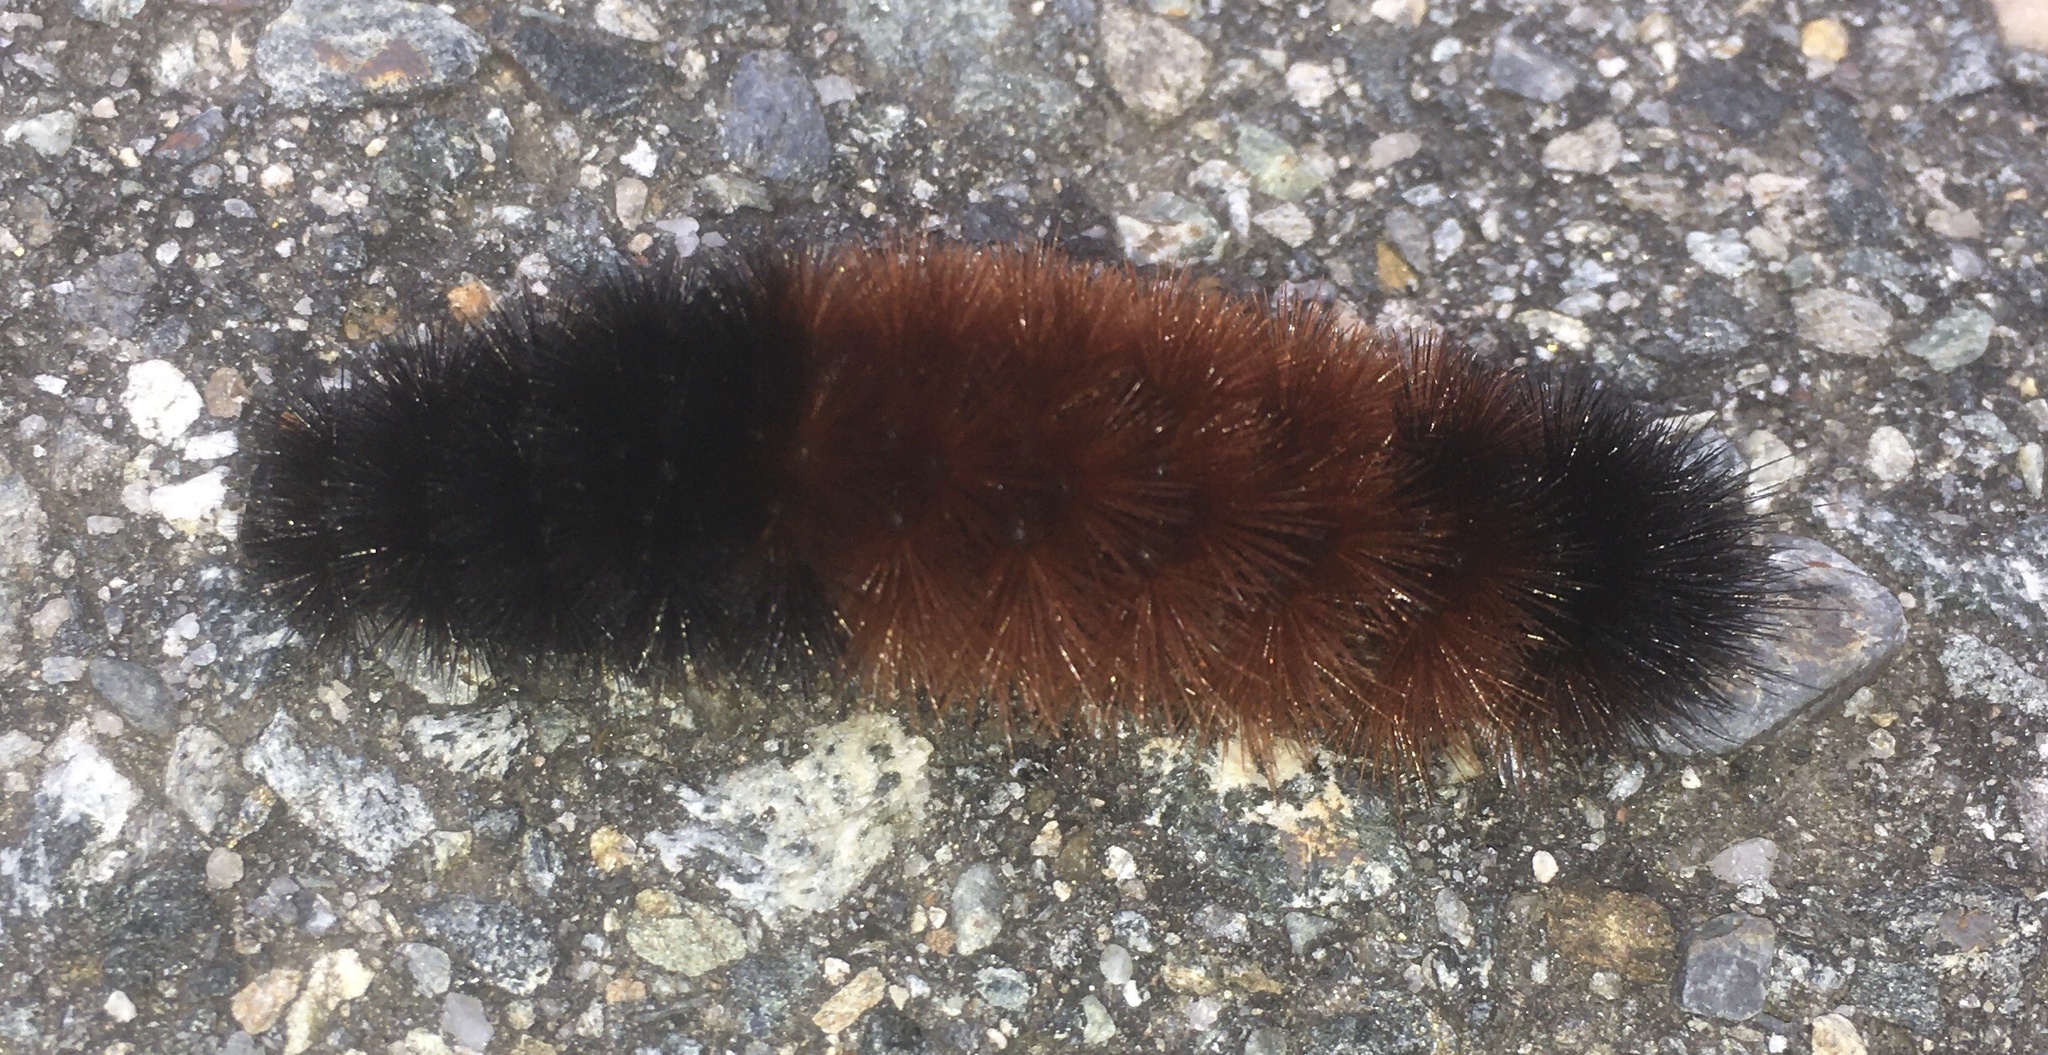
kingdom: Animalia
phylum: Arthropoda
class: Insecta
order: Lepidoptera
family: Erebidae
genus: Pyrrharctia
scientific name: Pyrrharctia isabella
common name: Isabella tiger moth
